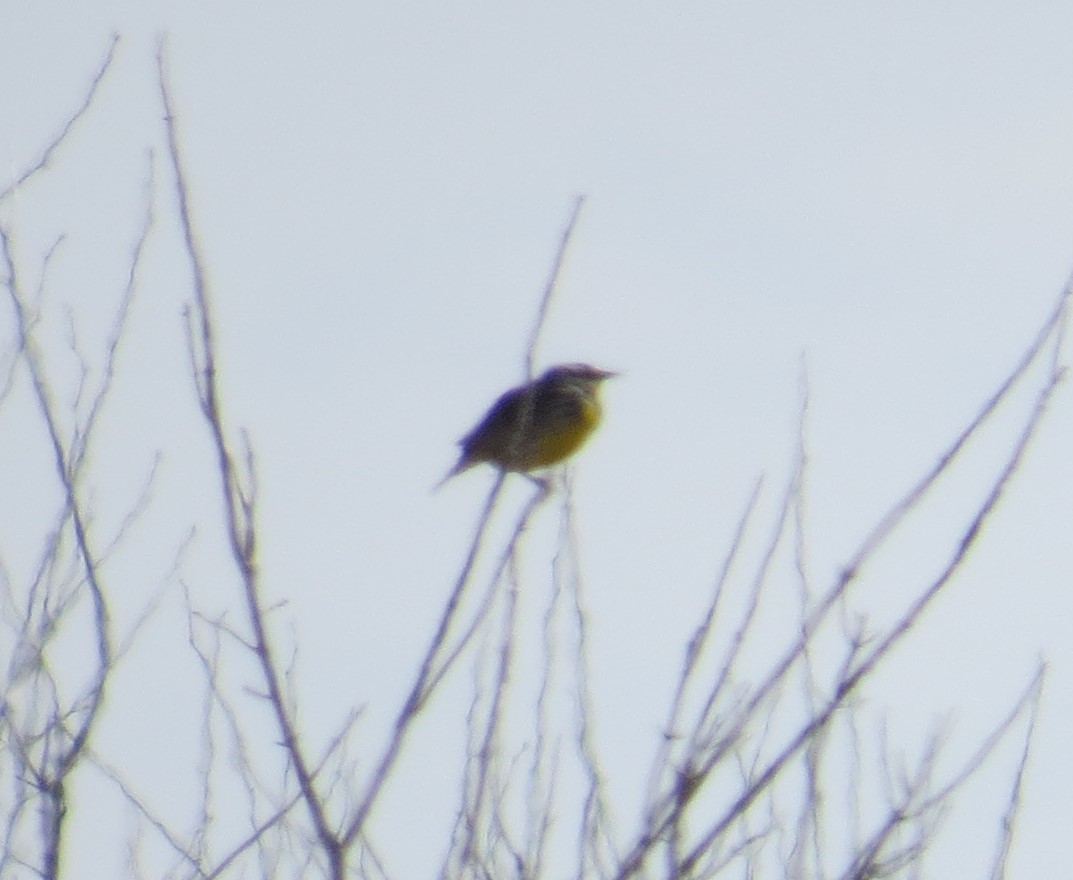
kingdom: Animalia
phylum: Chordata
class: Aves
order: Passeriformes
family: Icteridae
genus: Sturnella
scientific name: Sturnella magna
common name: Eastern meadowlark
